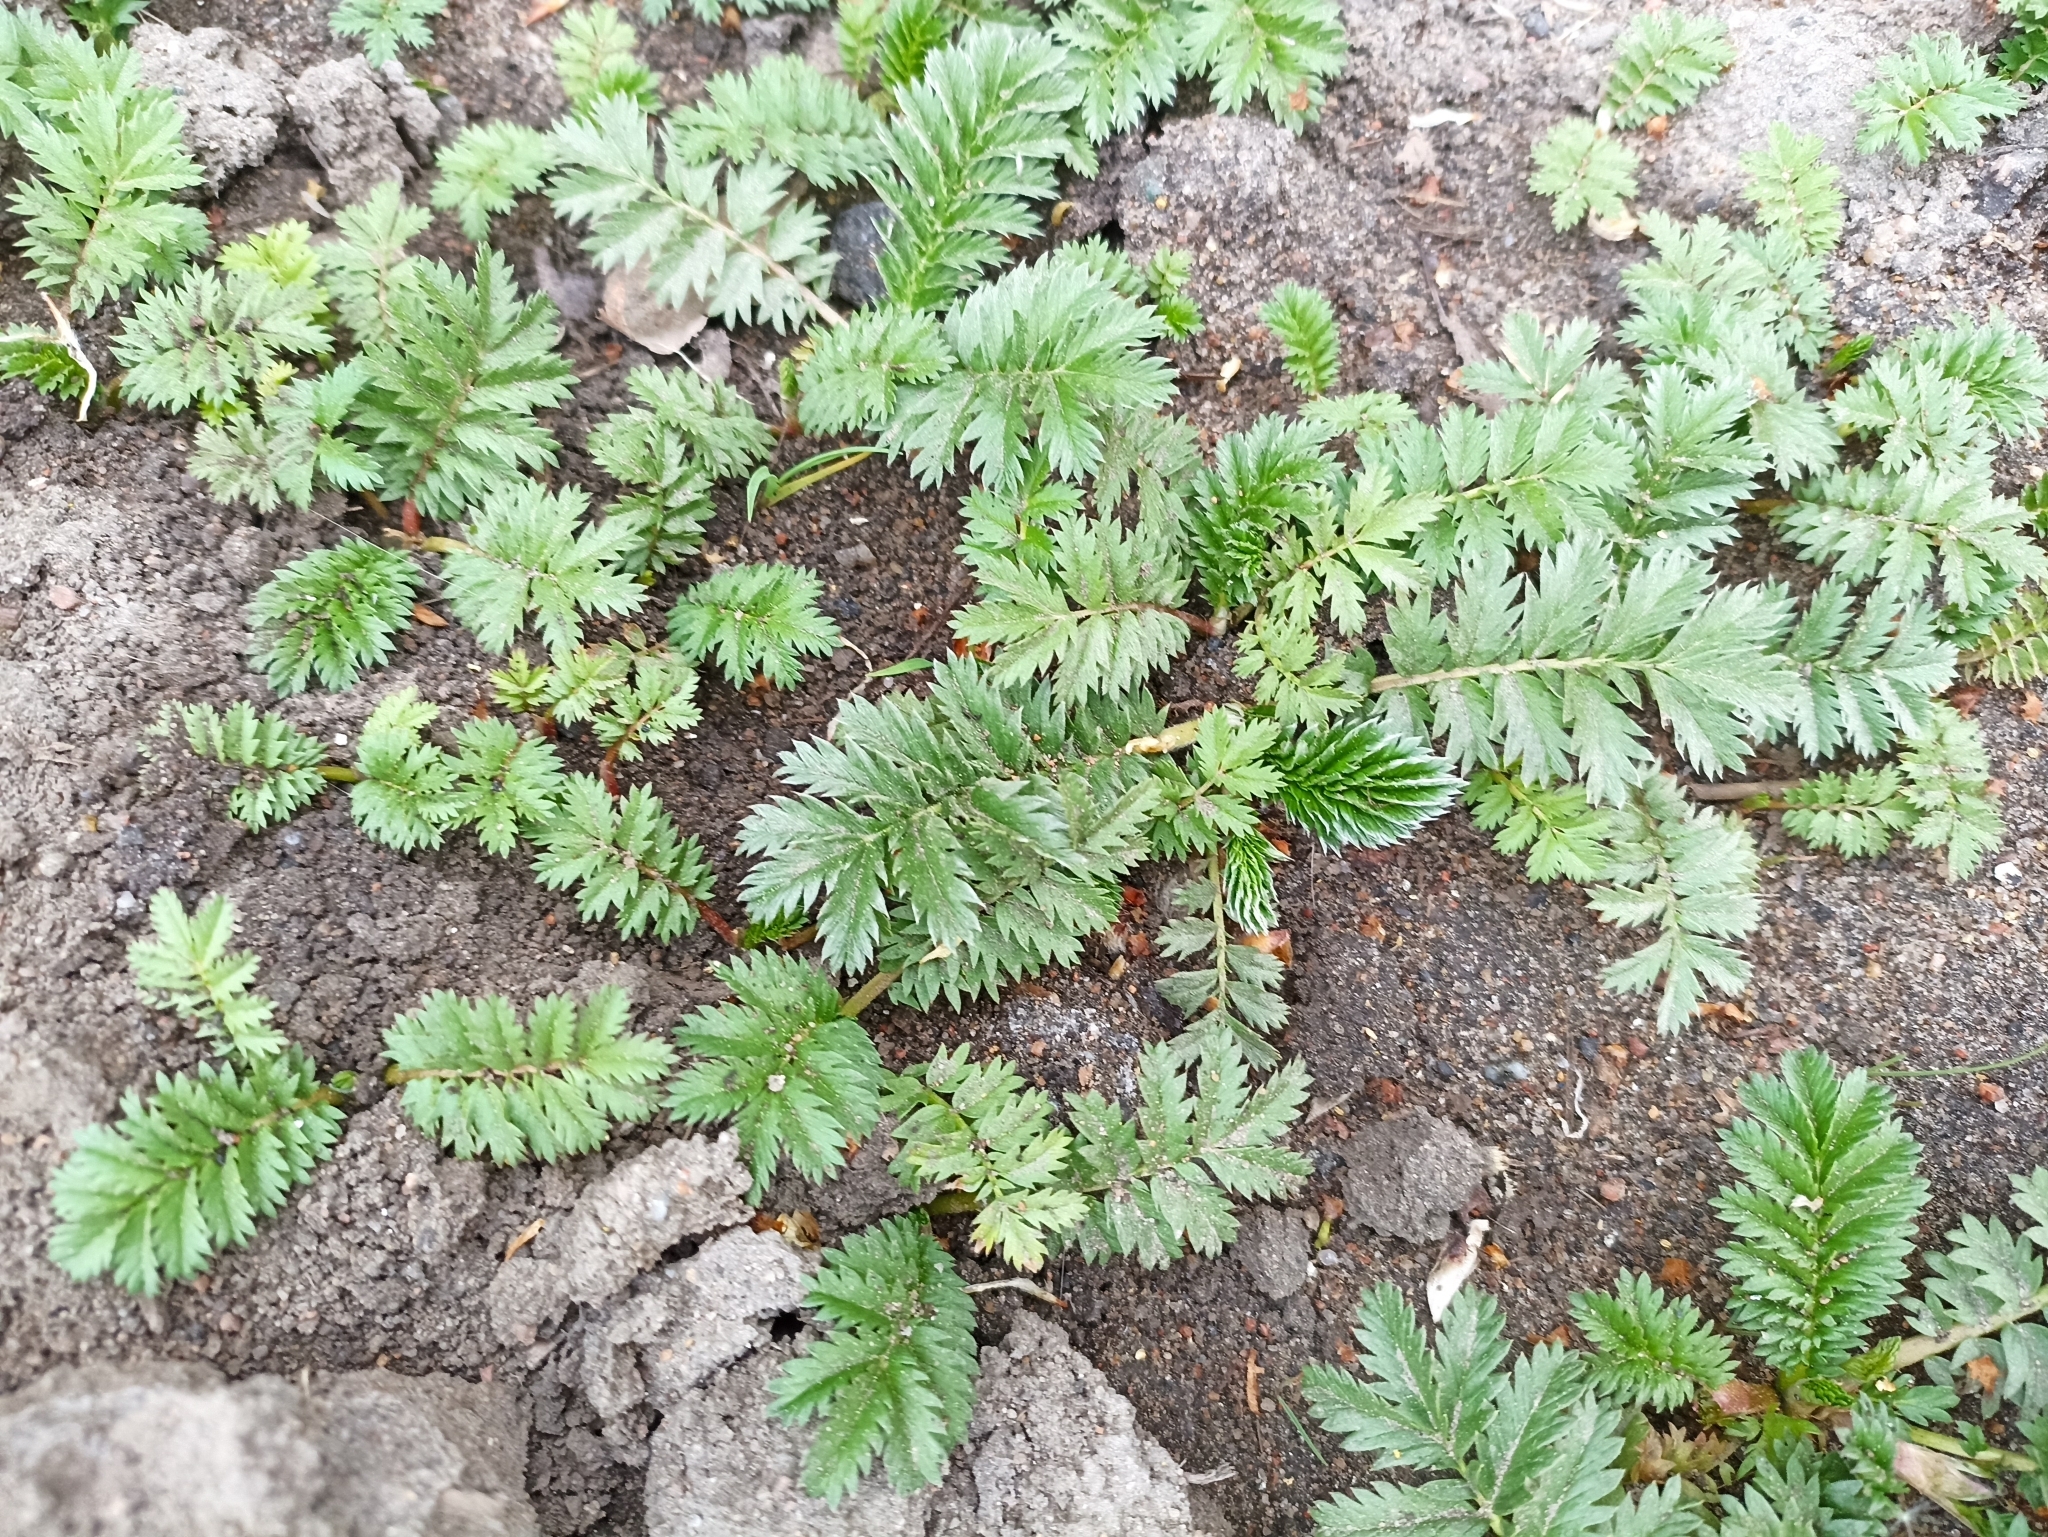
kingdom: Plantae
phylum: Tracheophyta
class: Magnoliopsida
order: Rosales
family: Rosaceae
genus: Argentina
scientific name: Argentina anserina
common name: Common silverweed
